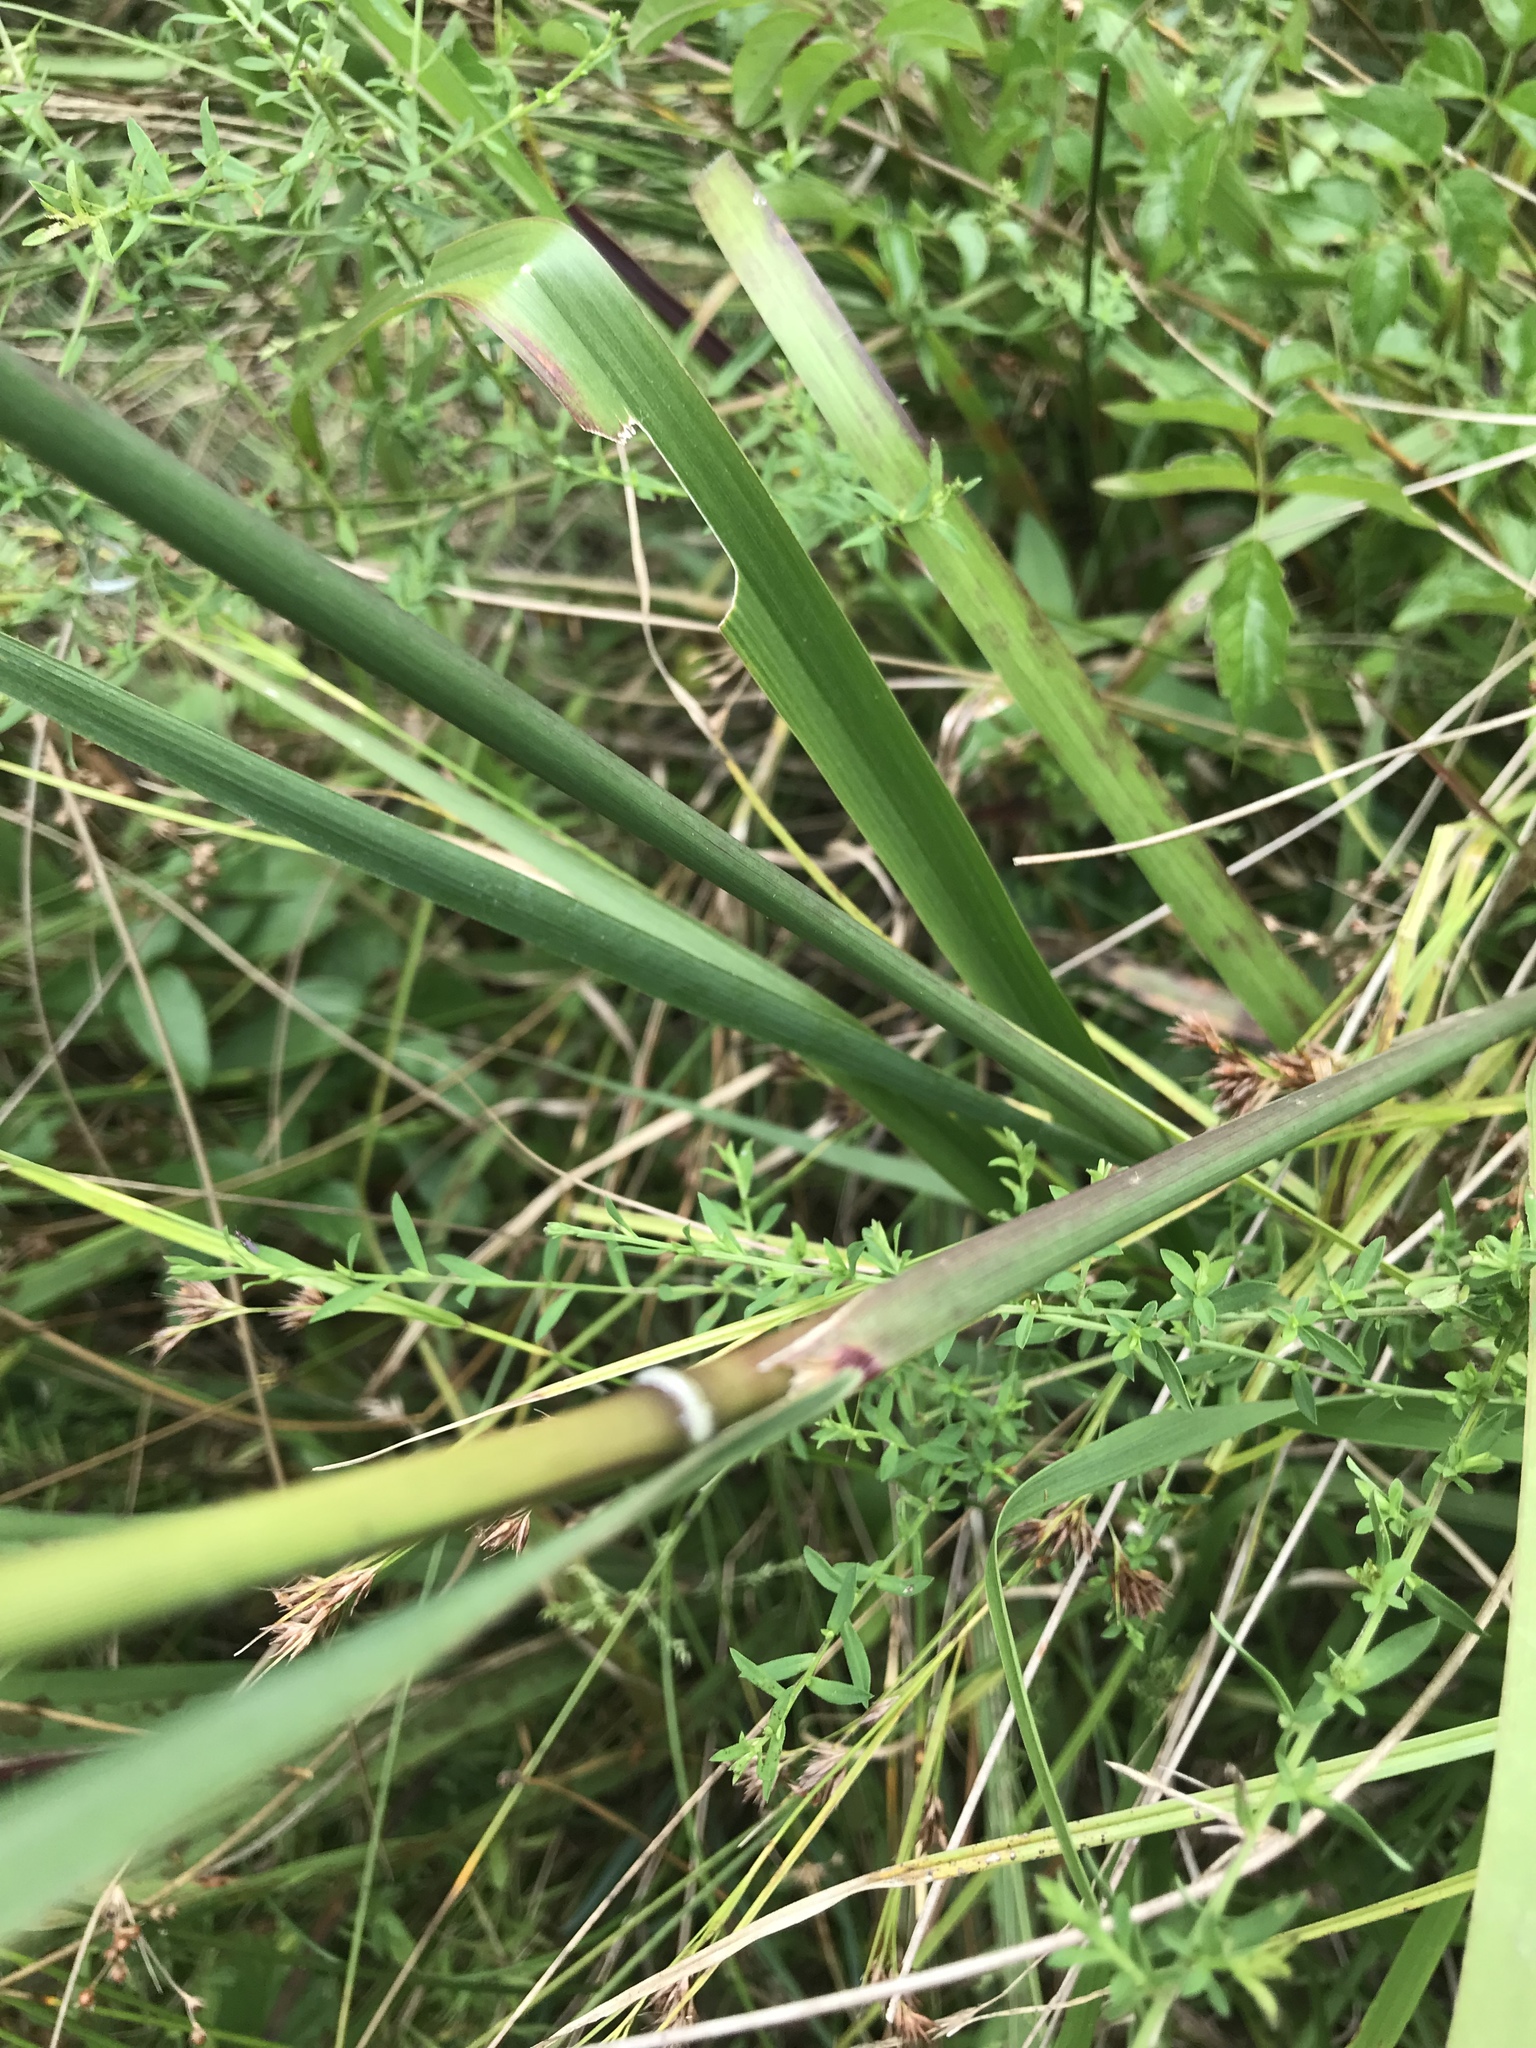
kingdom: Plantae
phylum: Tracheophyta
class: Liliopsida
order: Poales
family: Poaceae
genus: Sorghastrum
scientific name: Sorghastrum nutans
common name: Indian grass
